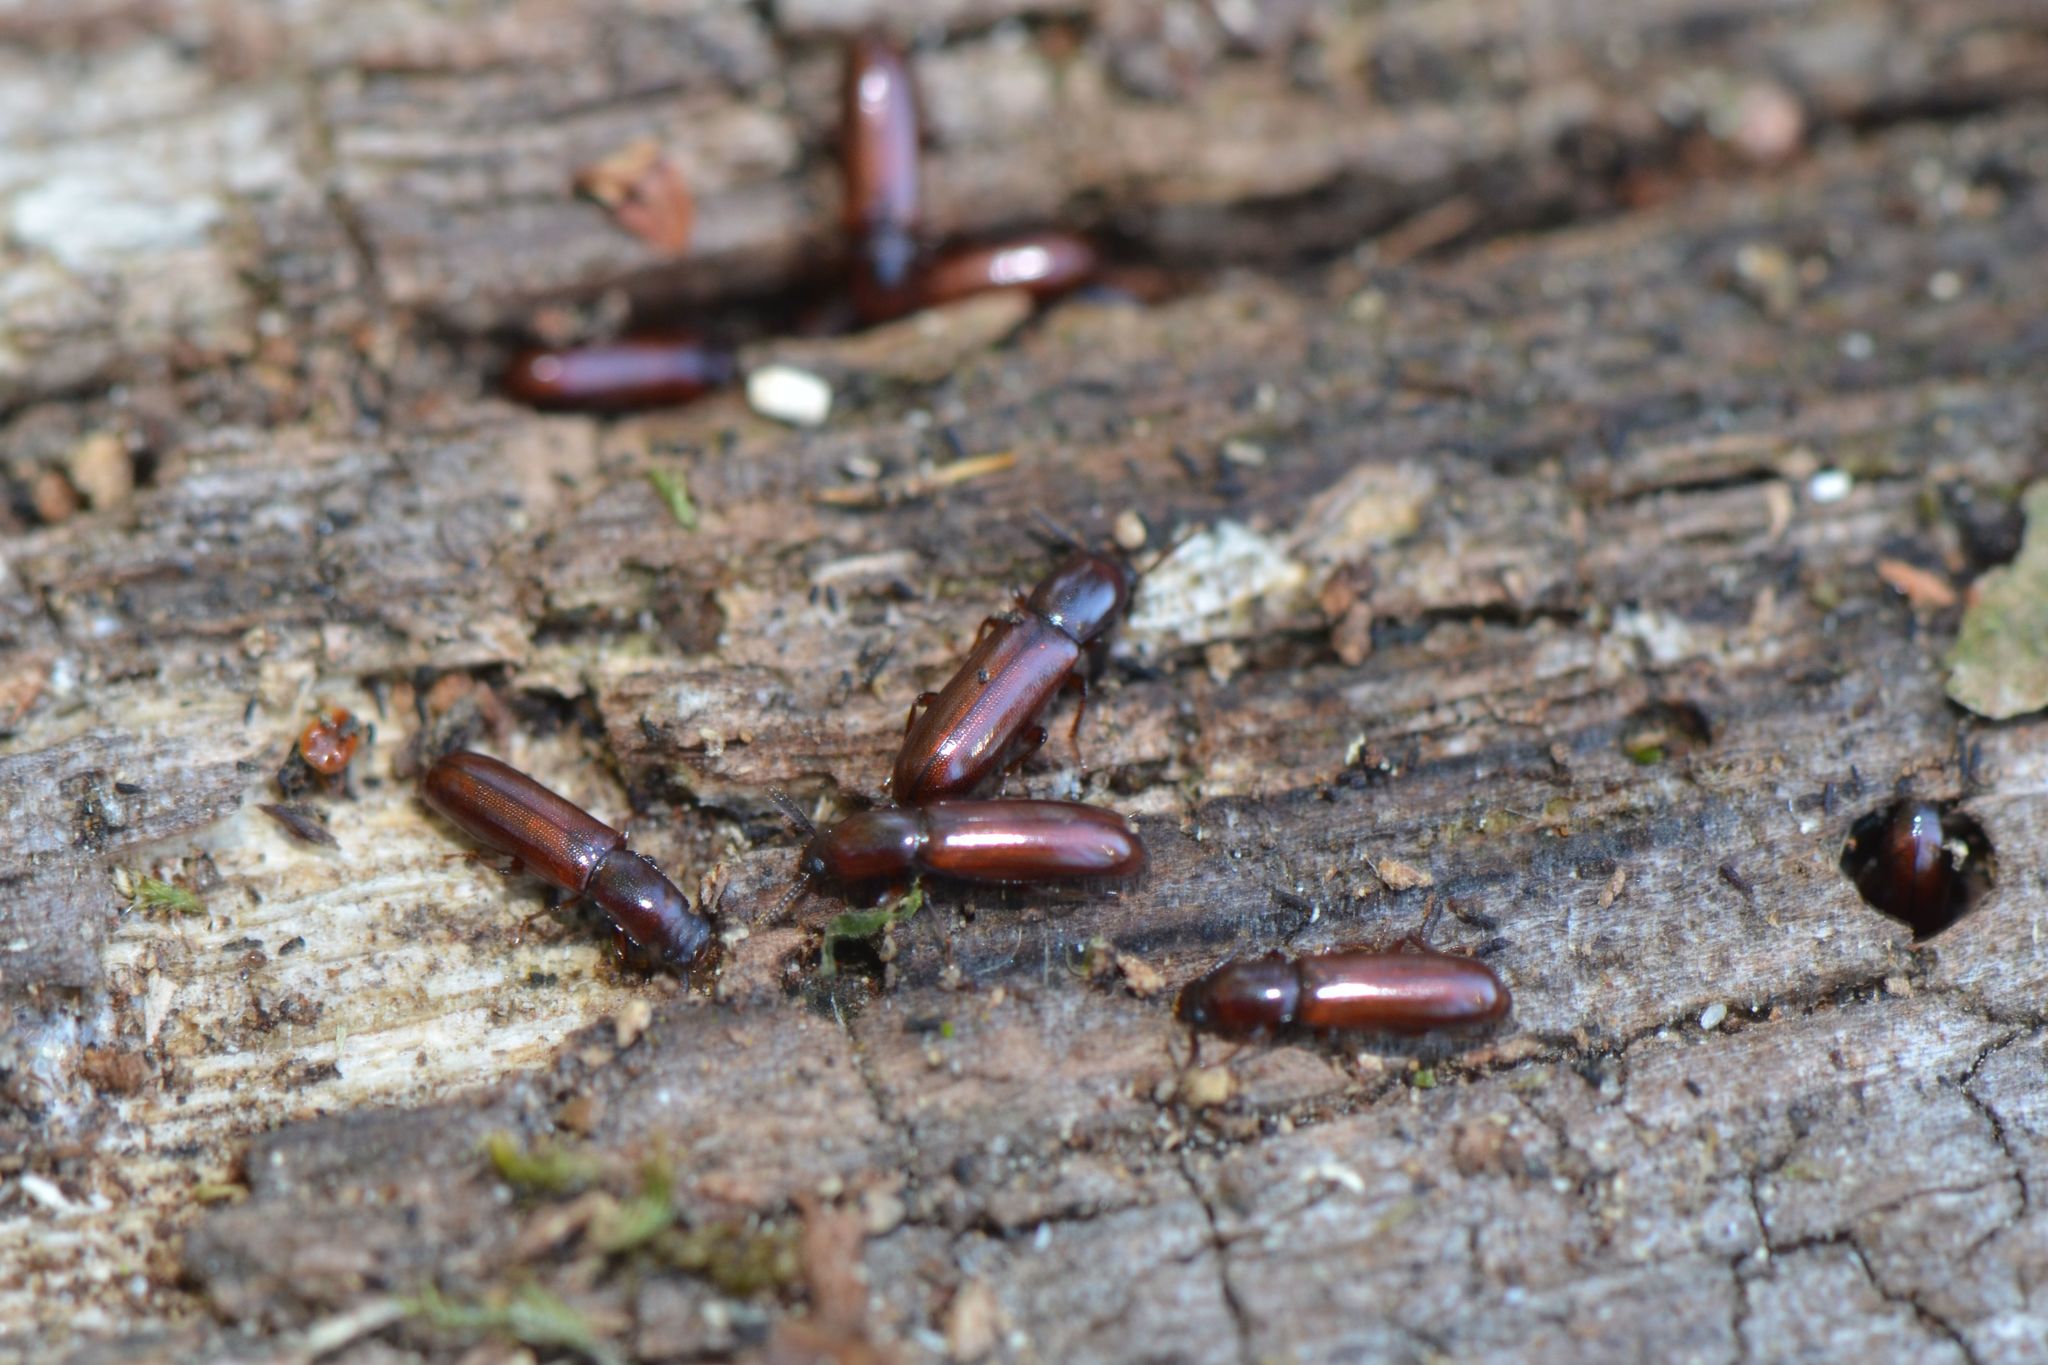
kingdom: Animalia
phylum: Arthropoda
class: Insecta
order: Coleoptera
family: Tenebrionidae
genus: Corticeus
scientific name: Corticeus unicolor
